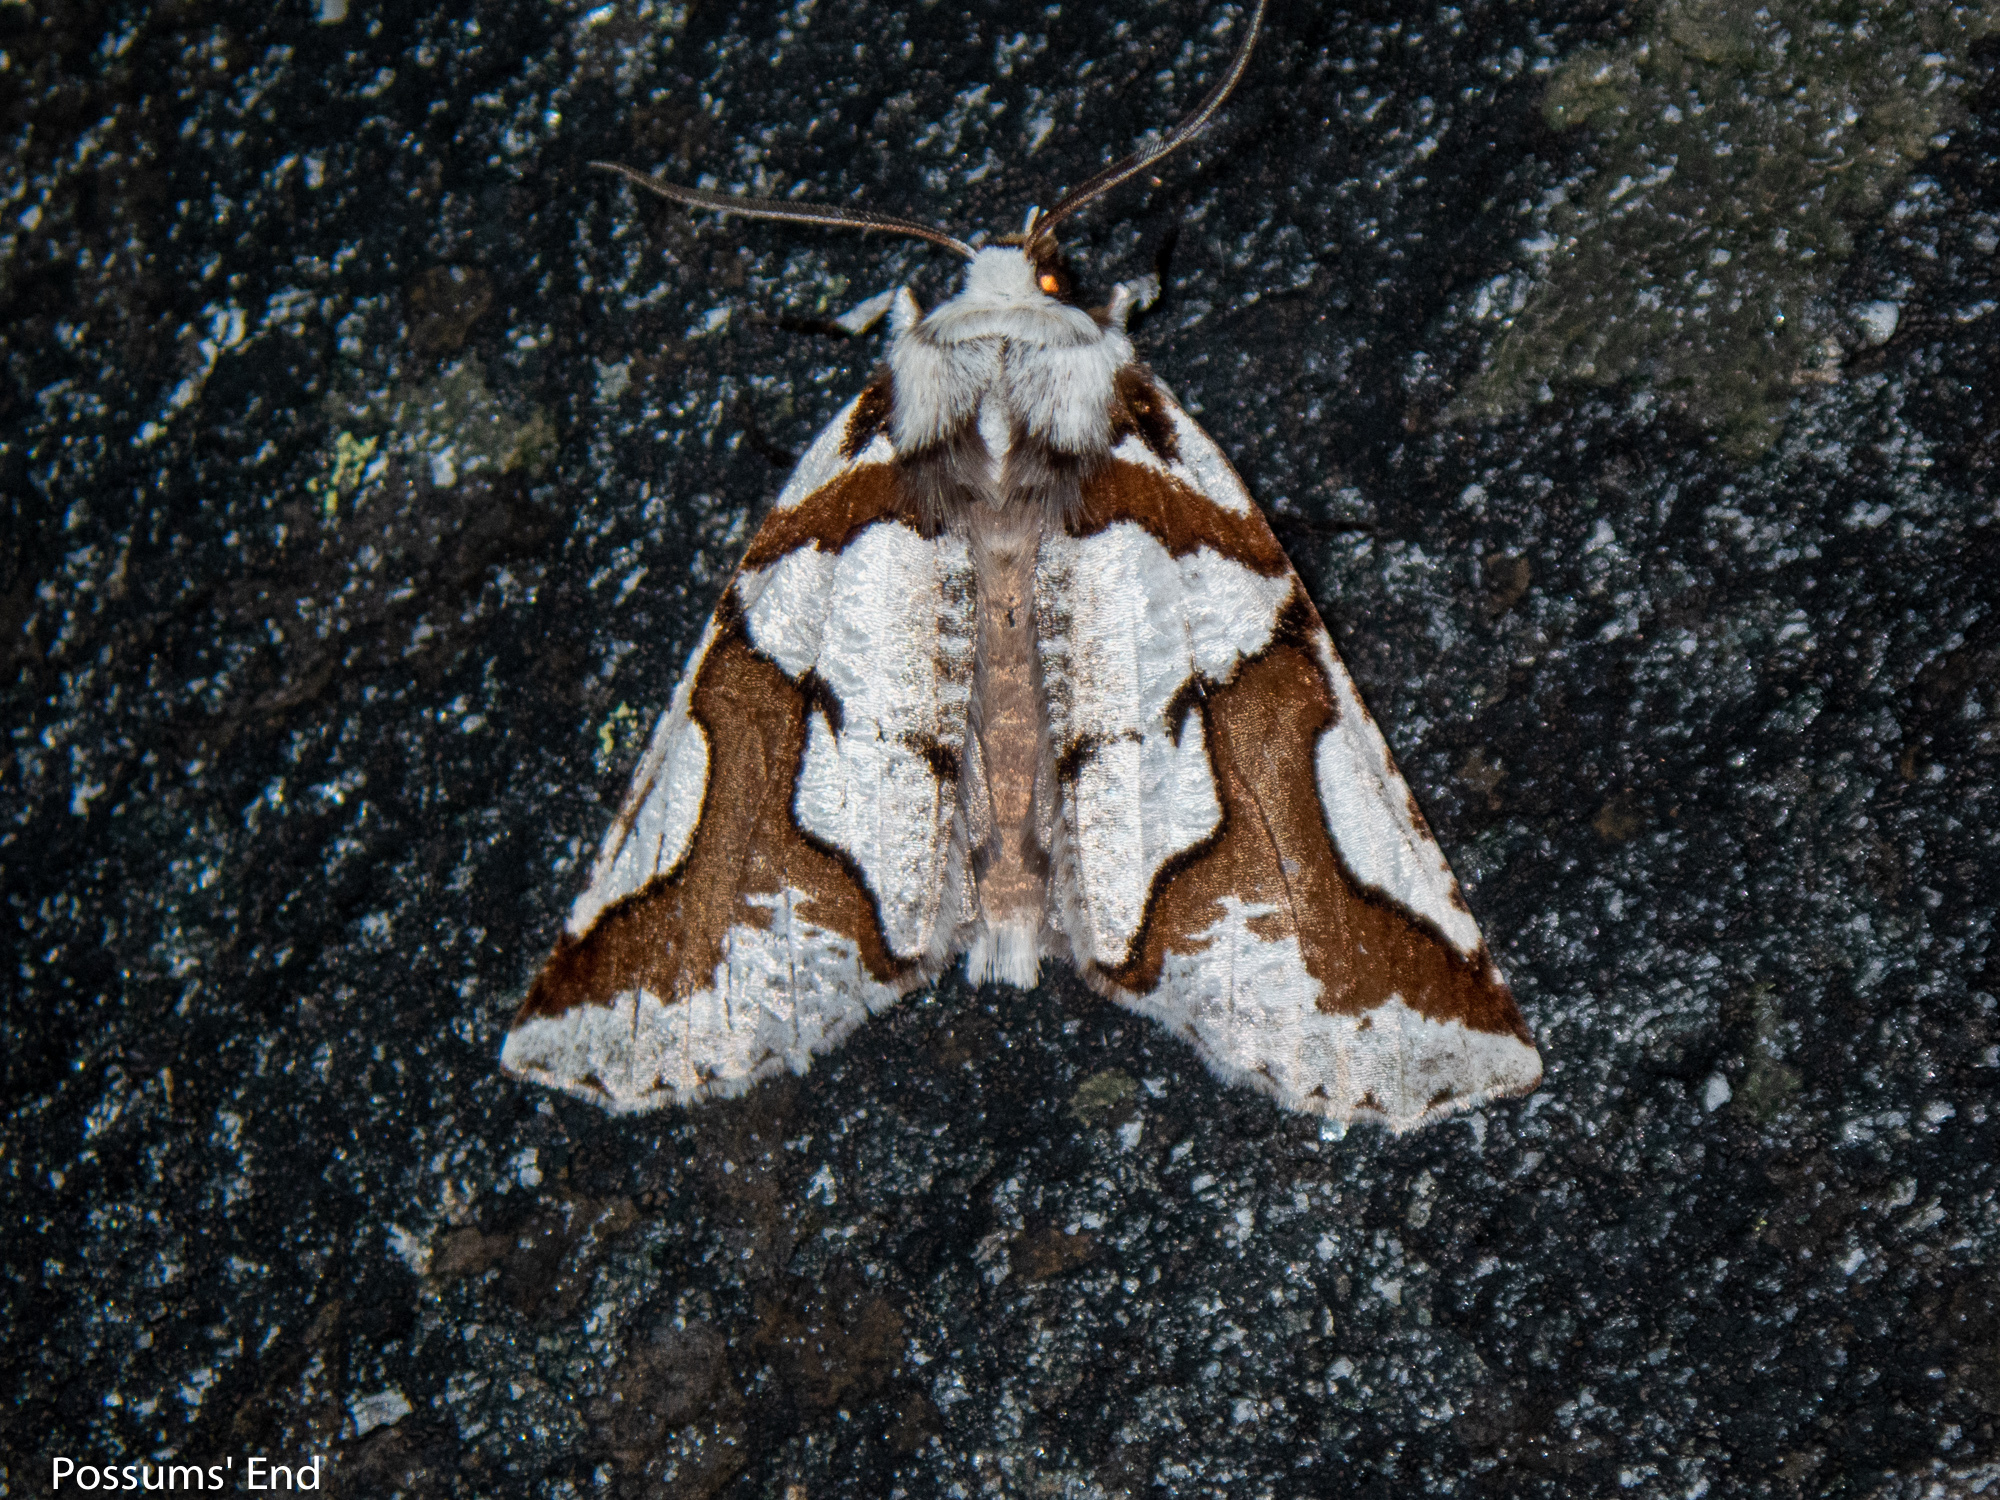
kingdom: Animalia
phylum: Arthropoda
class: Insecta
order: Lepidoptera
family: Geometridae
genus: Declana
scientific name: Declana
